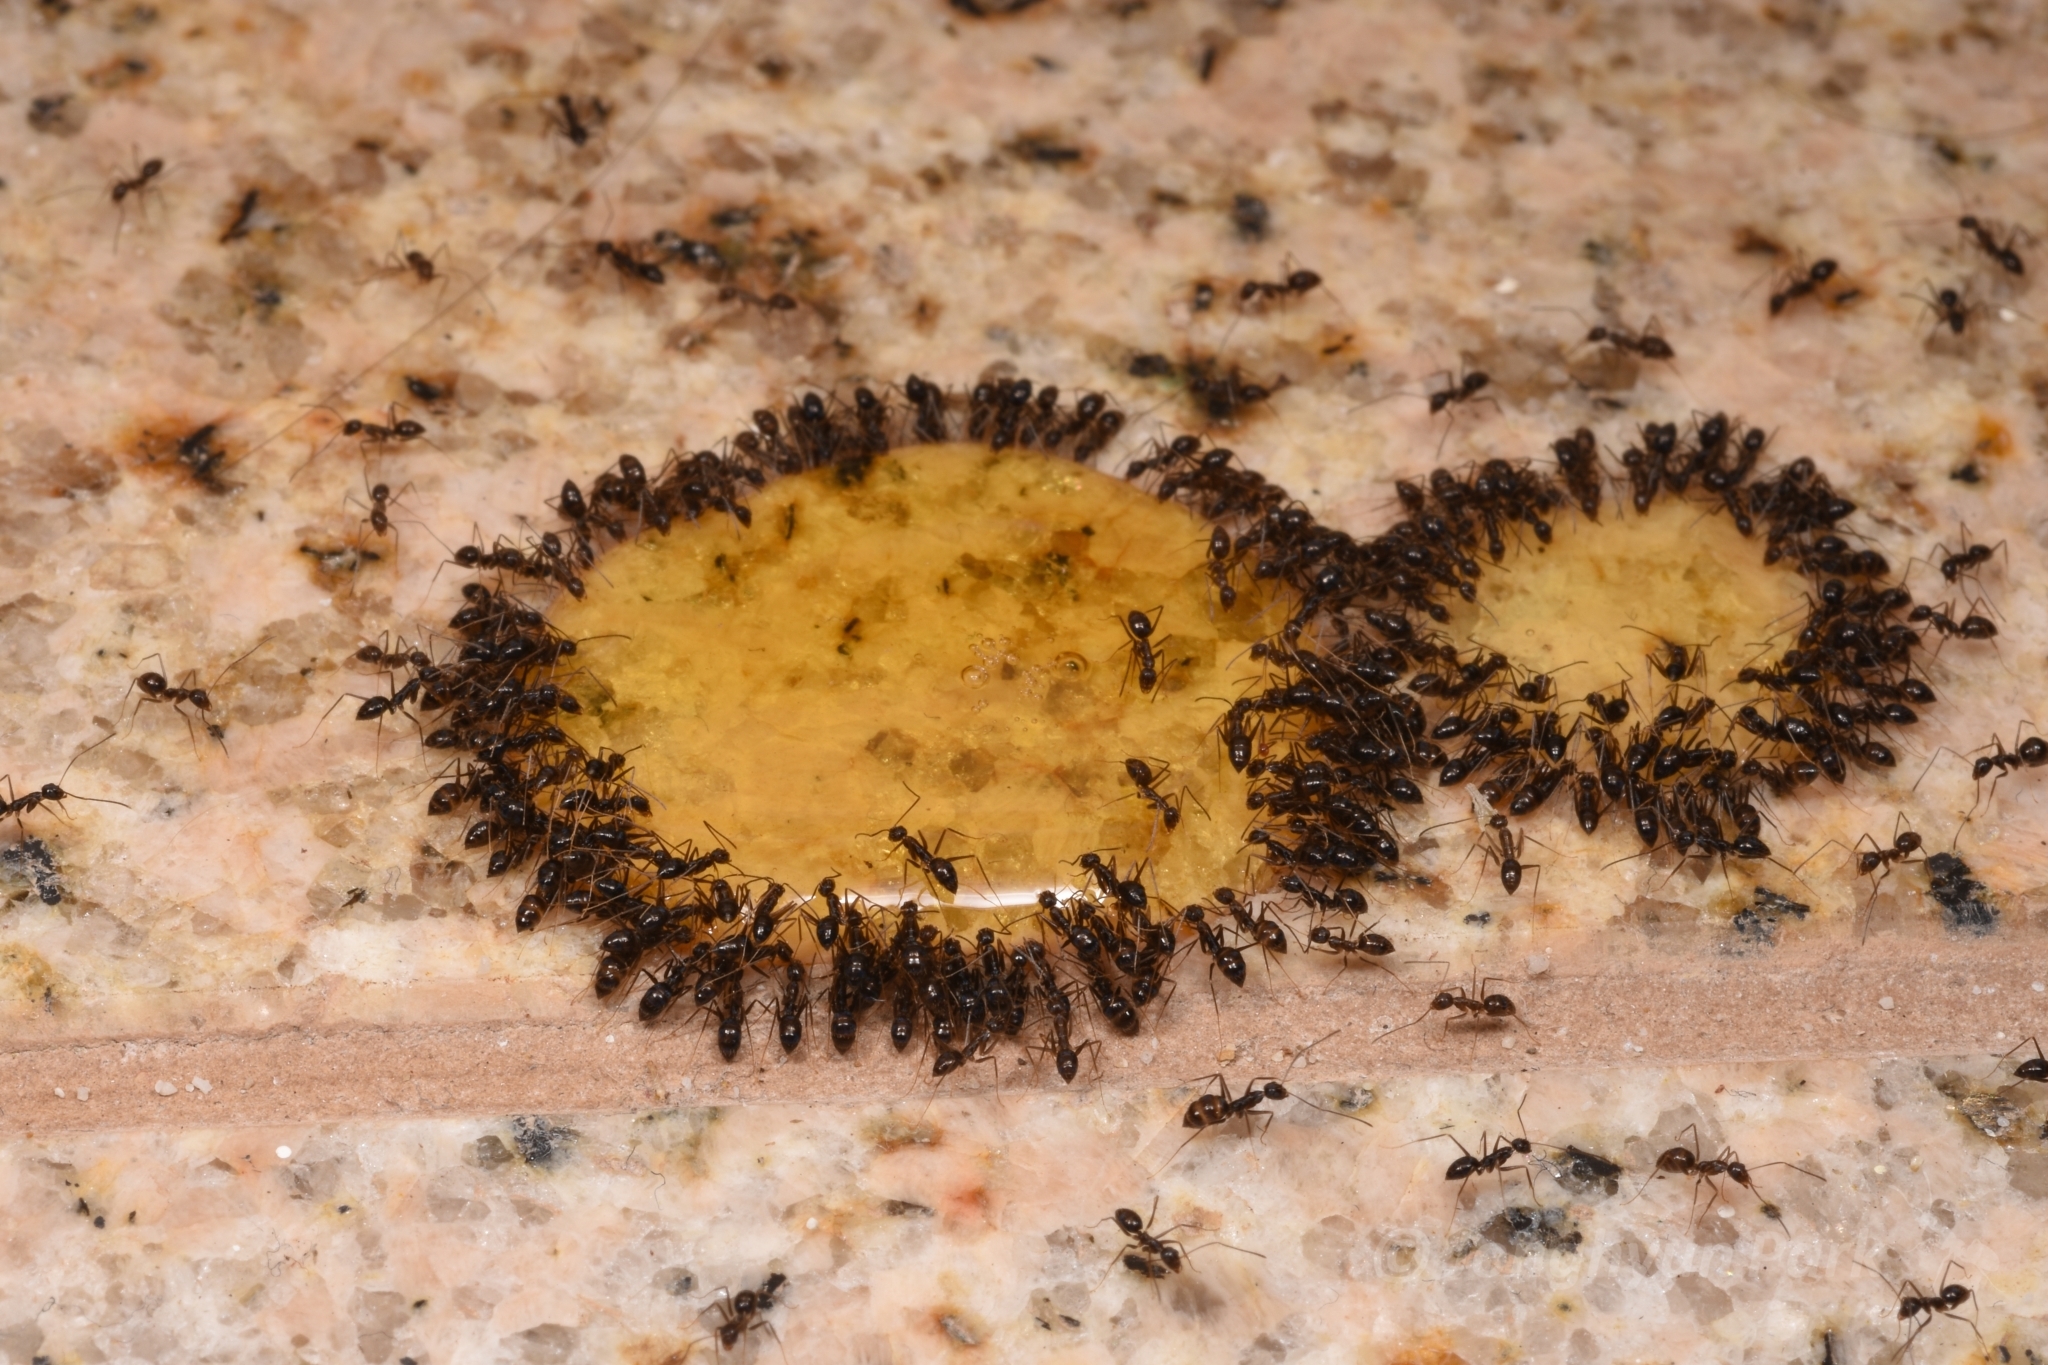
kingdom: Animalia
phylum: Arthropoda
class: Insecta
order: Hymenoptera
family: Formicidae
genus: Paratrechina
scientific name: Paratrechina longicornis
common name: Longhorned crazy ant
